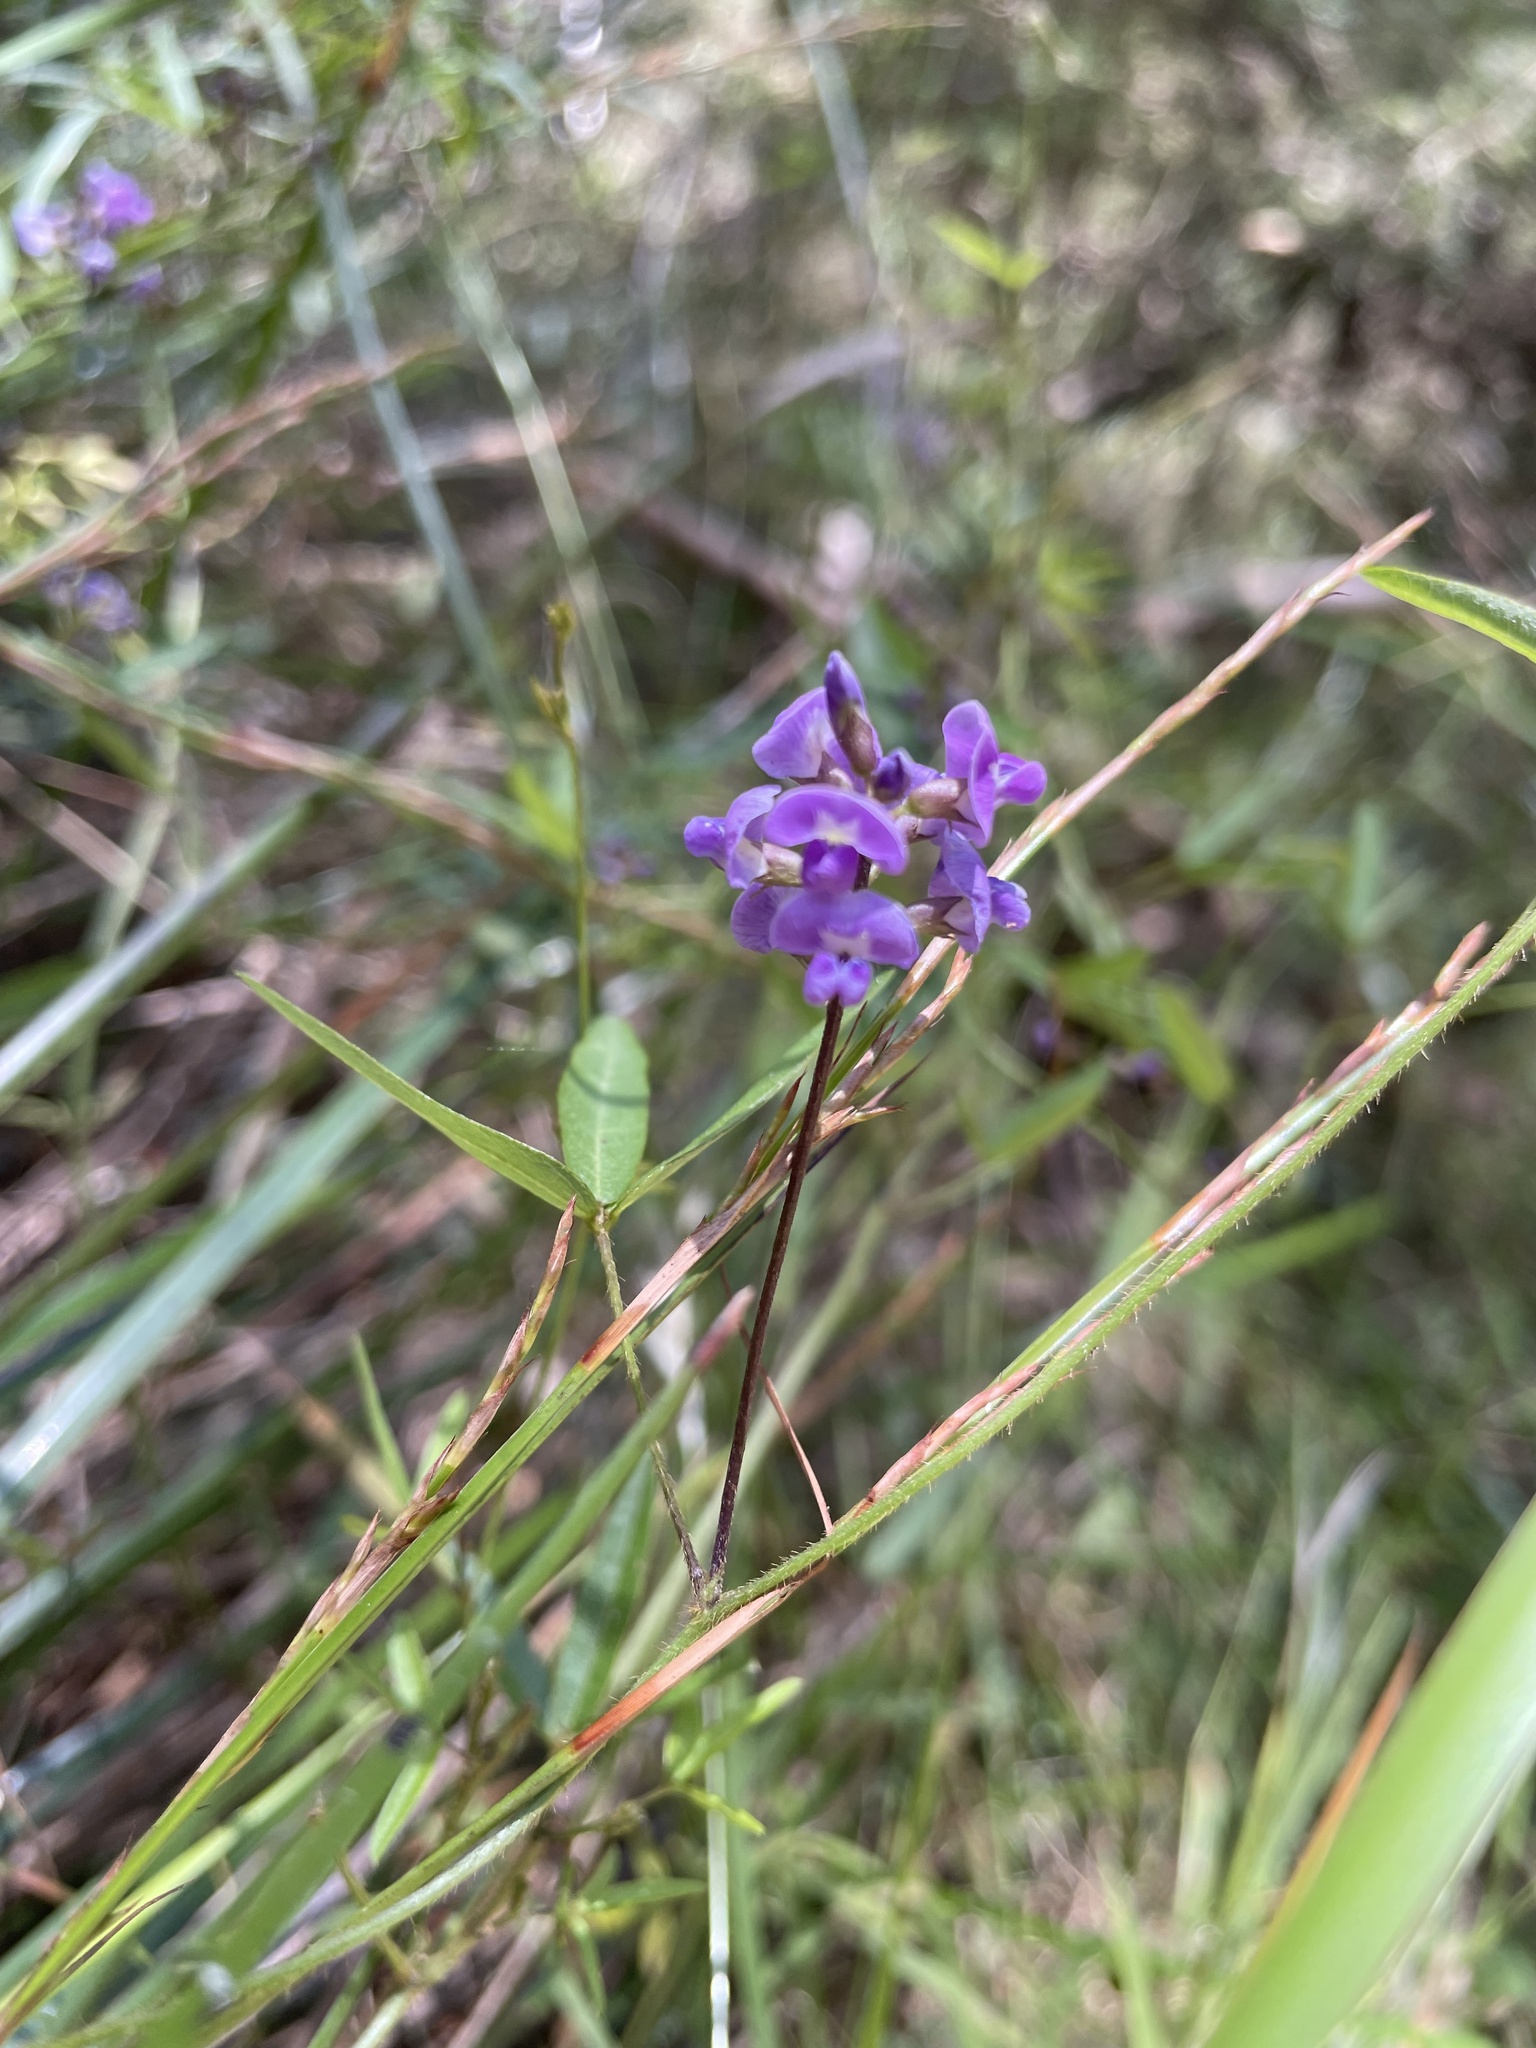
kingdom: Plantae
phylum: Tracheophyta
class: Magnoliopsida
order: Fabales
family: Fabaceae
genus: Glycine
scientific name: Glycine clandestina
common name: Twining glycine
